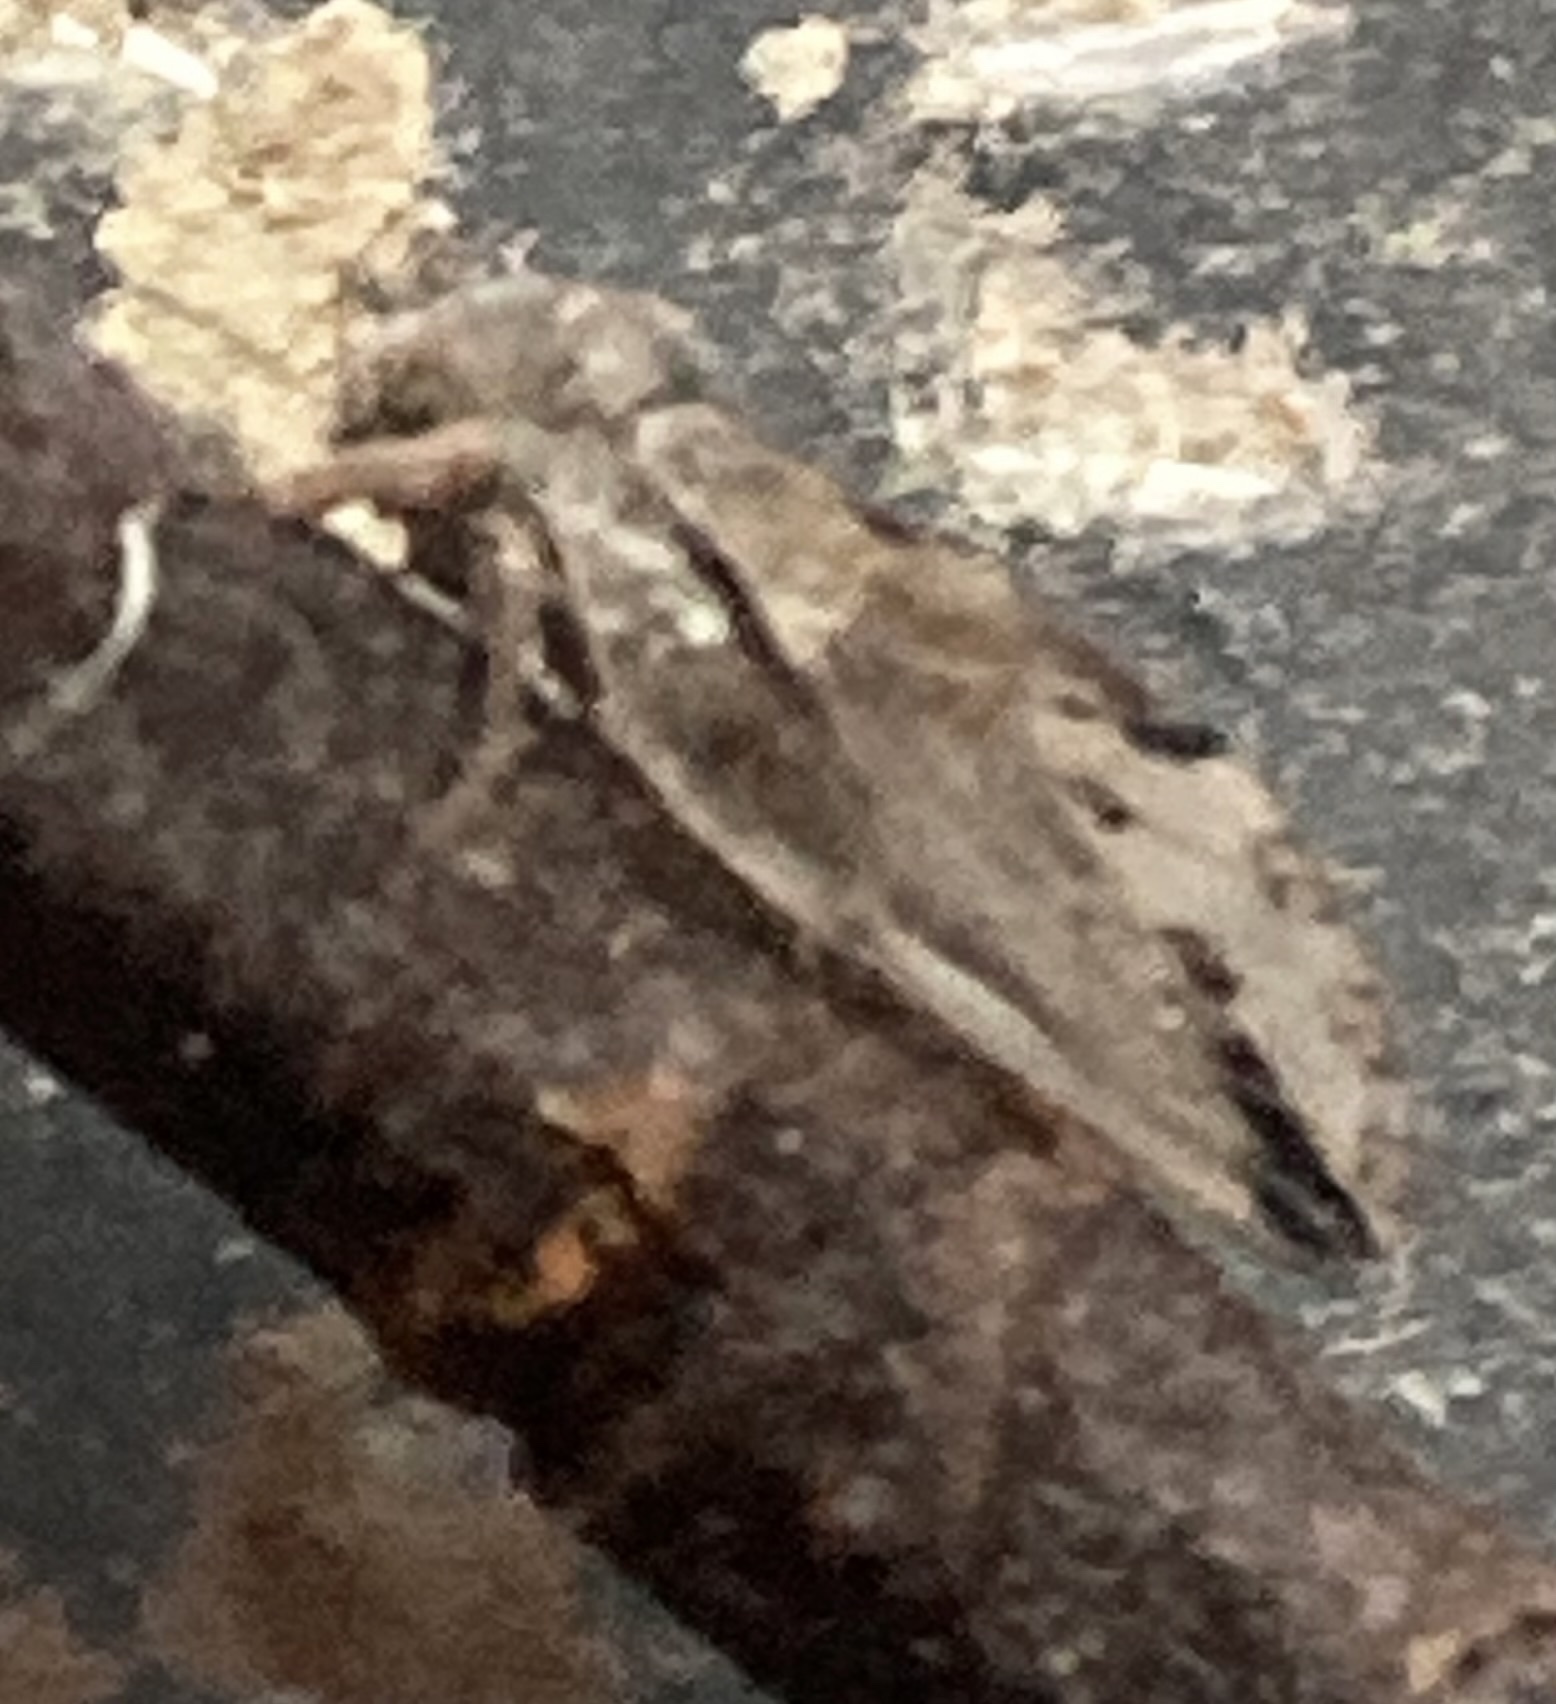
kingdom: Animalia
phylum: Arthropoda
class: Insecta
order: Hemiptera
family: Aphalaridae
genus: Pachypsylla
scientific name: Pachypsylla venusta
